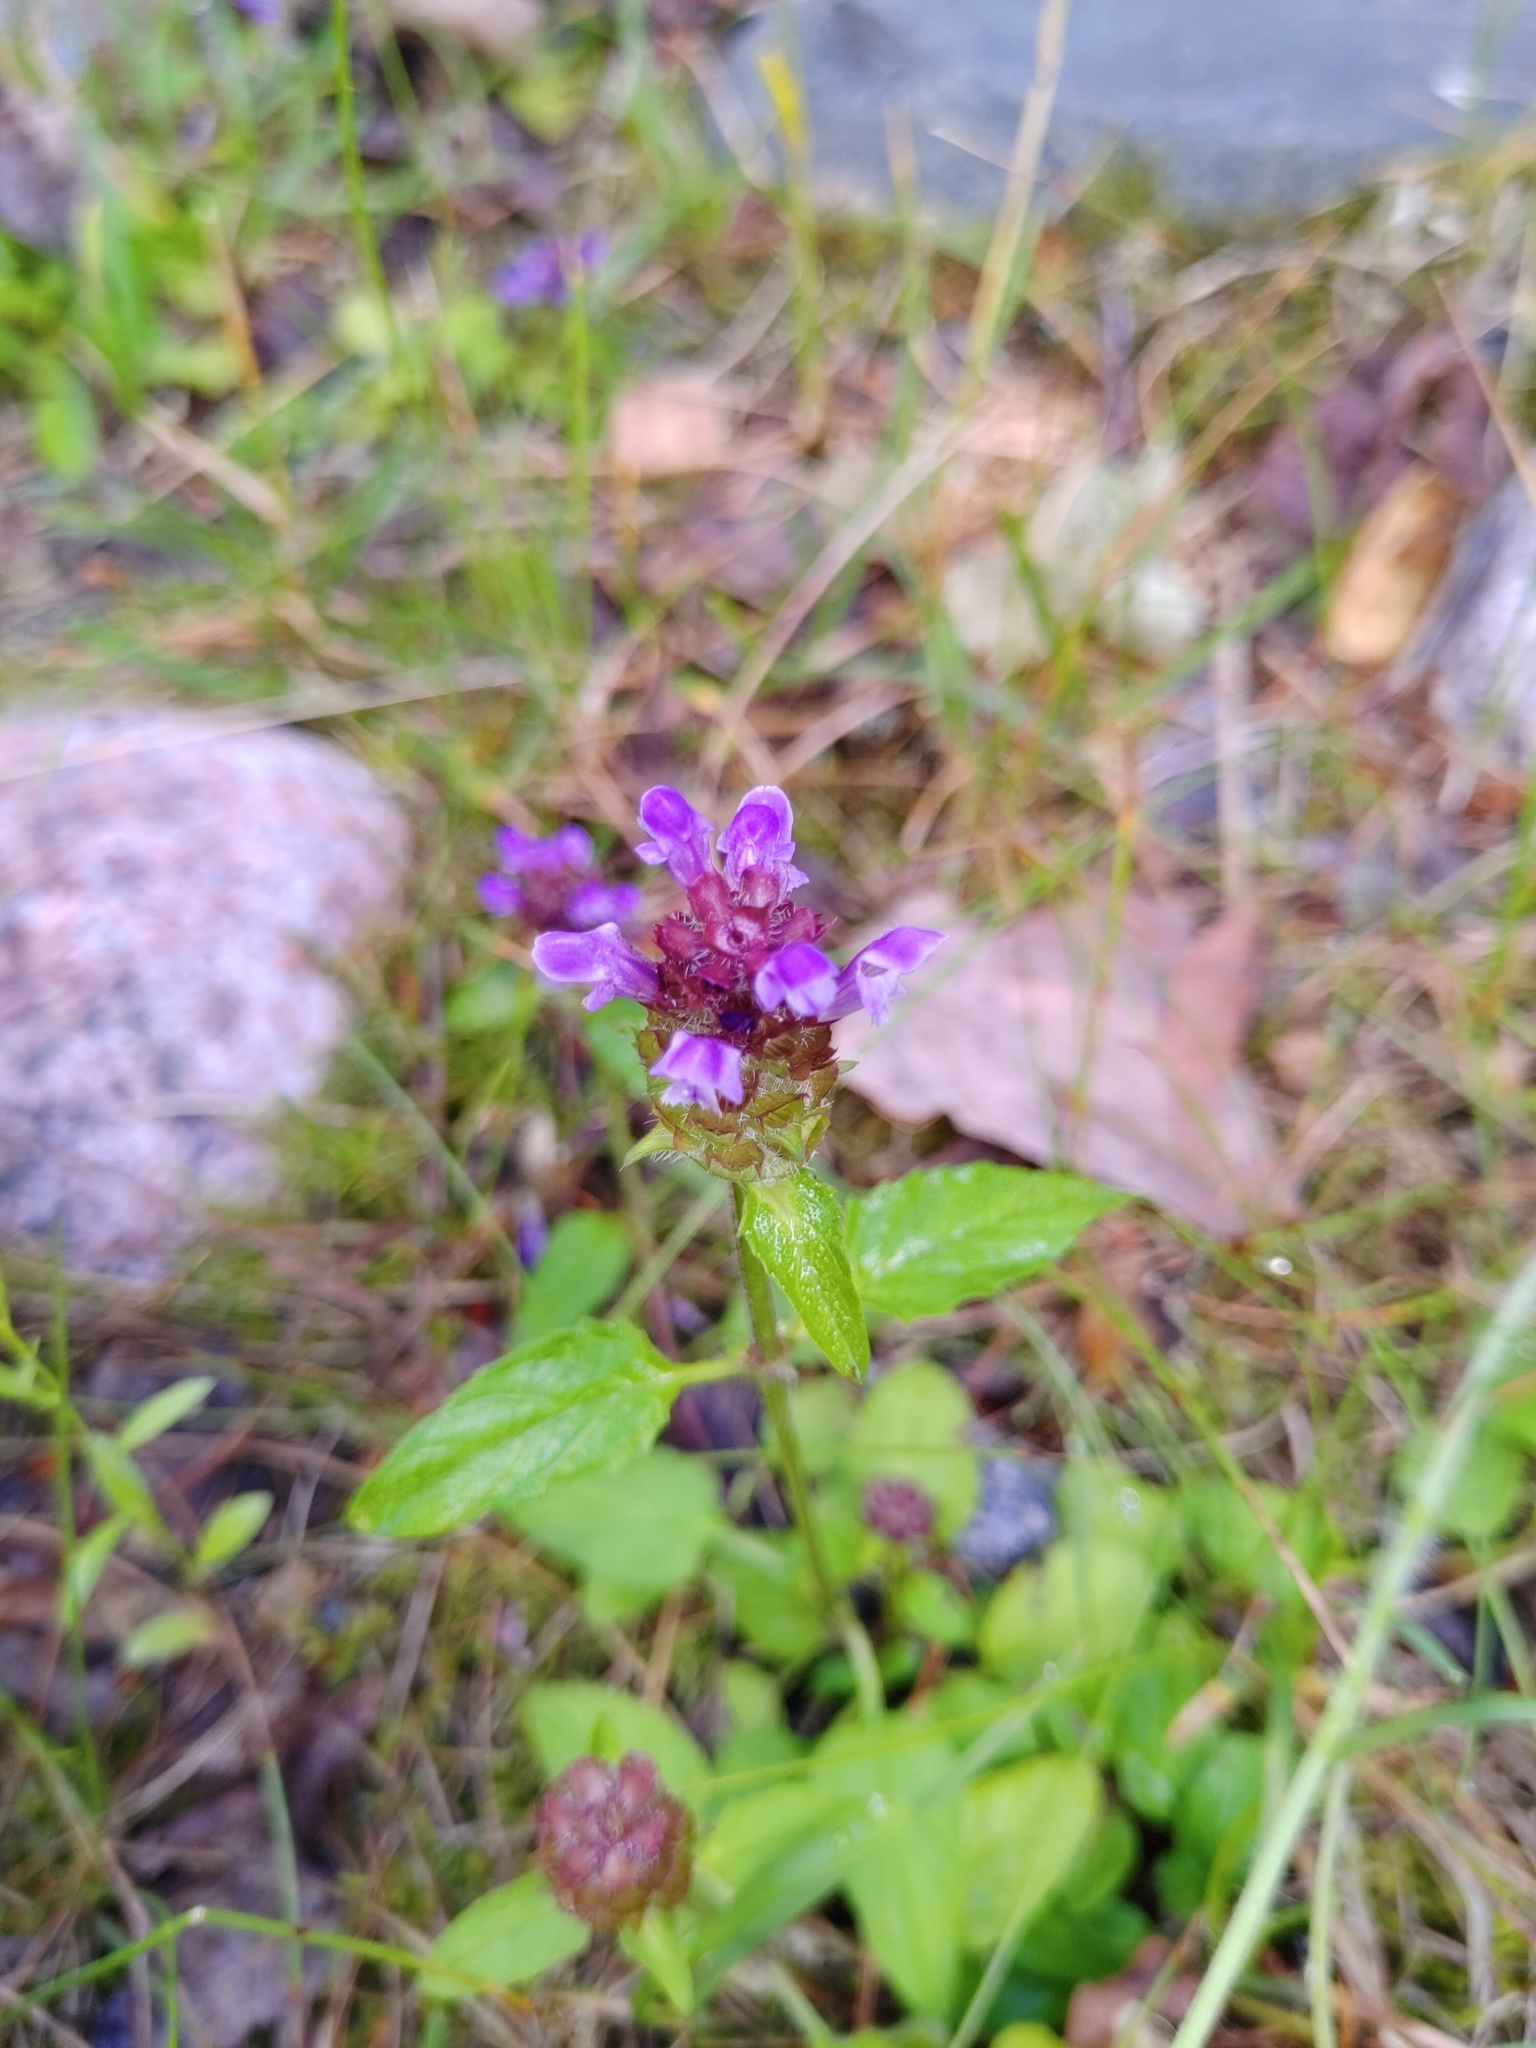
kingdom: Plantae
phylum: Tracheophyta
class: Magnoliopsida
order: Lamiales
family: Lamiaceae
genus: Prunella
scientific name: Prunella vulgaris
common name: Heal-all
